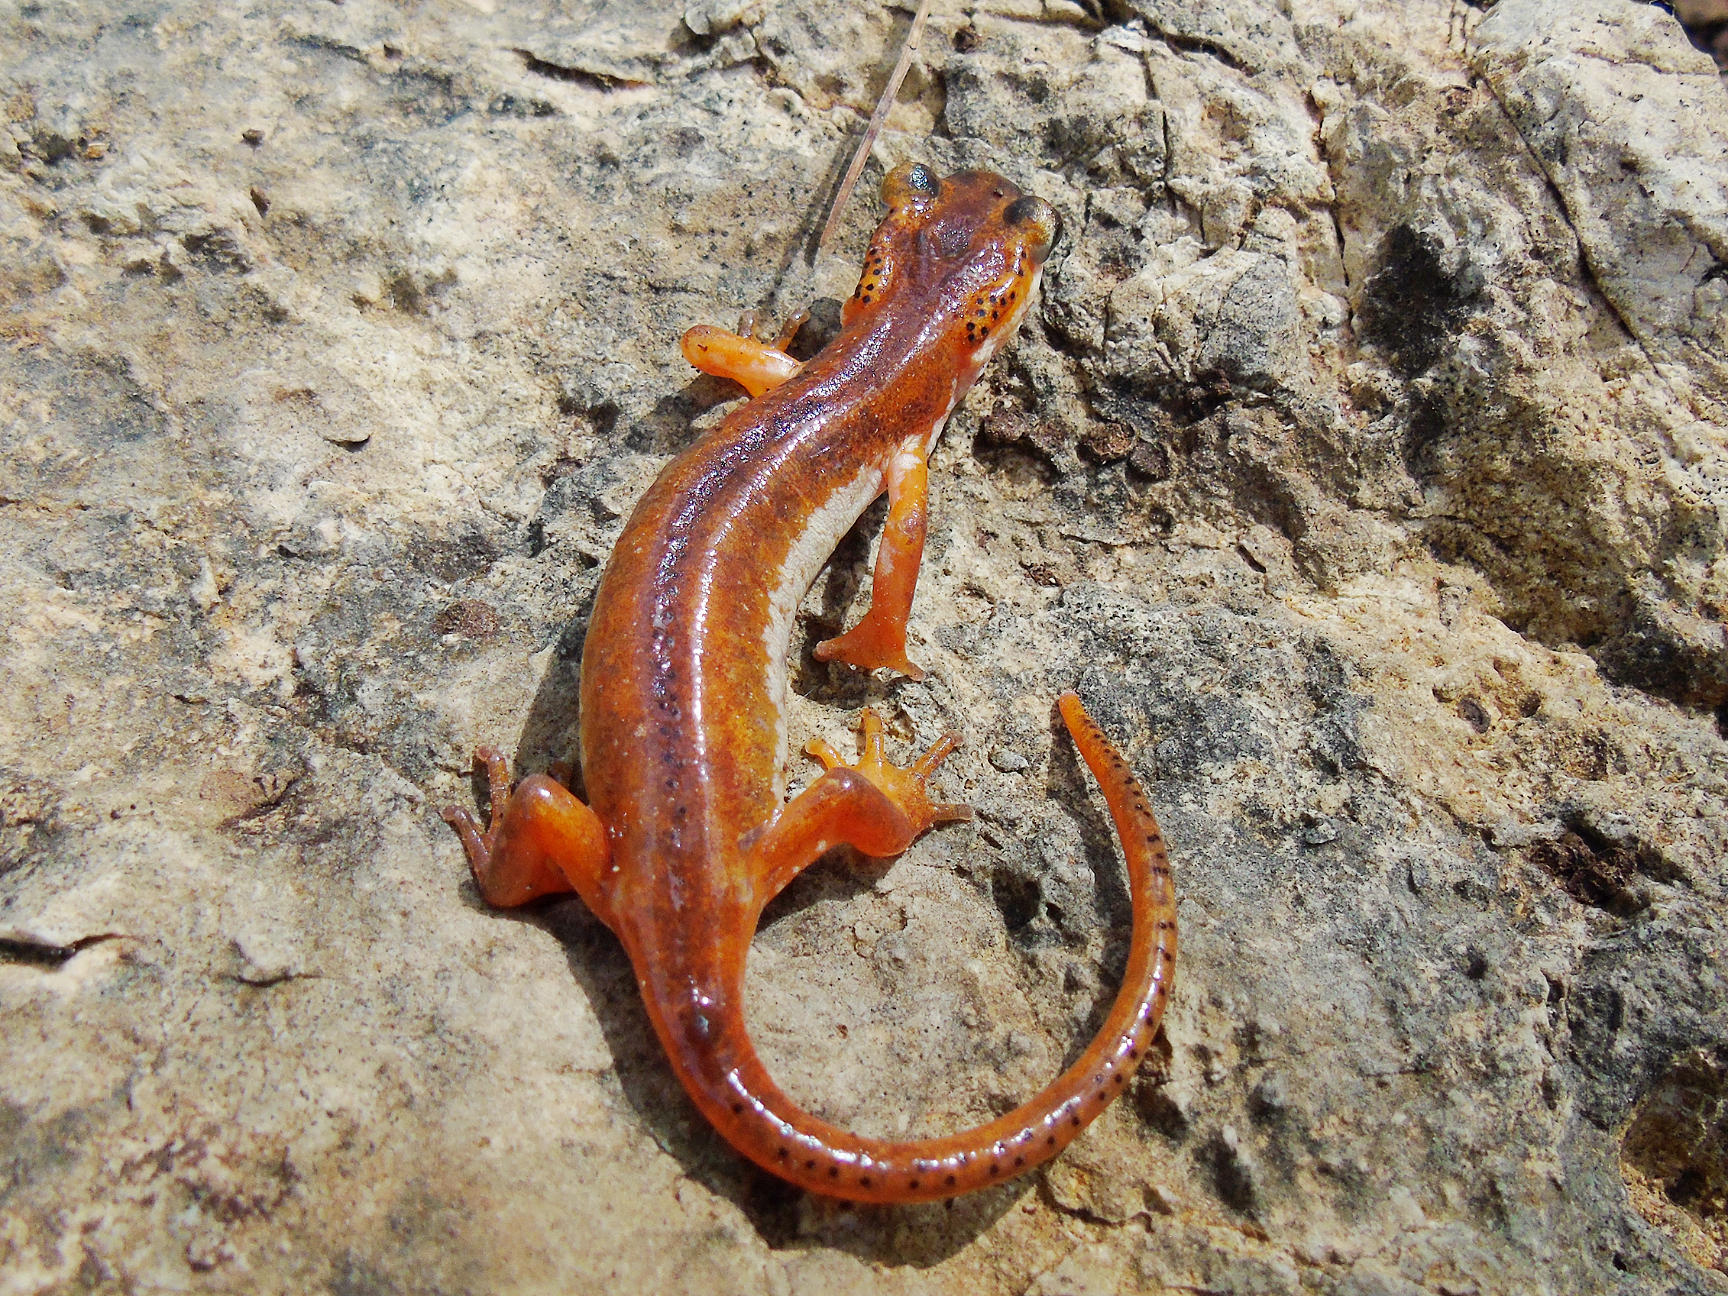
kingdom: Animalia
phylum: Chordata
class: Amphibia
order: Caudata
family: Salamandridae
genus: Lyciasalamandra
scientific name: Lyciasalamandra billae
